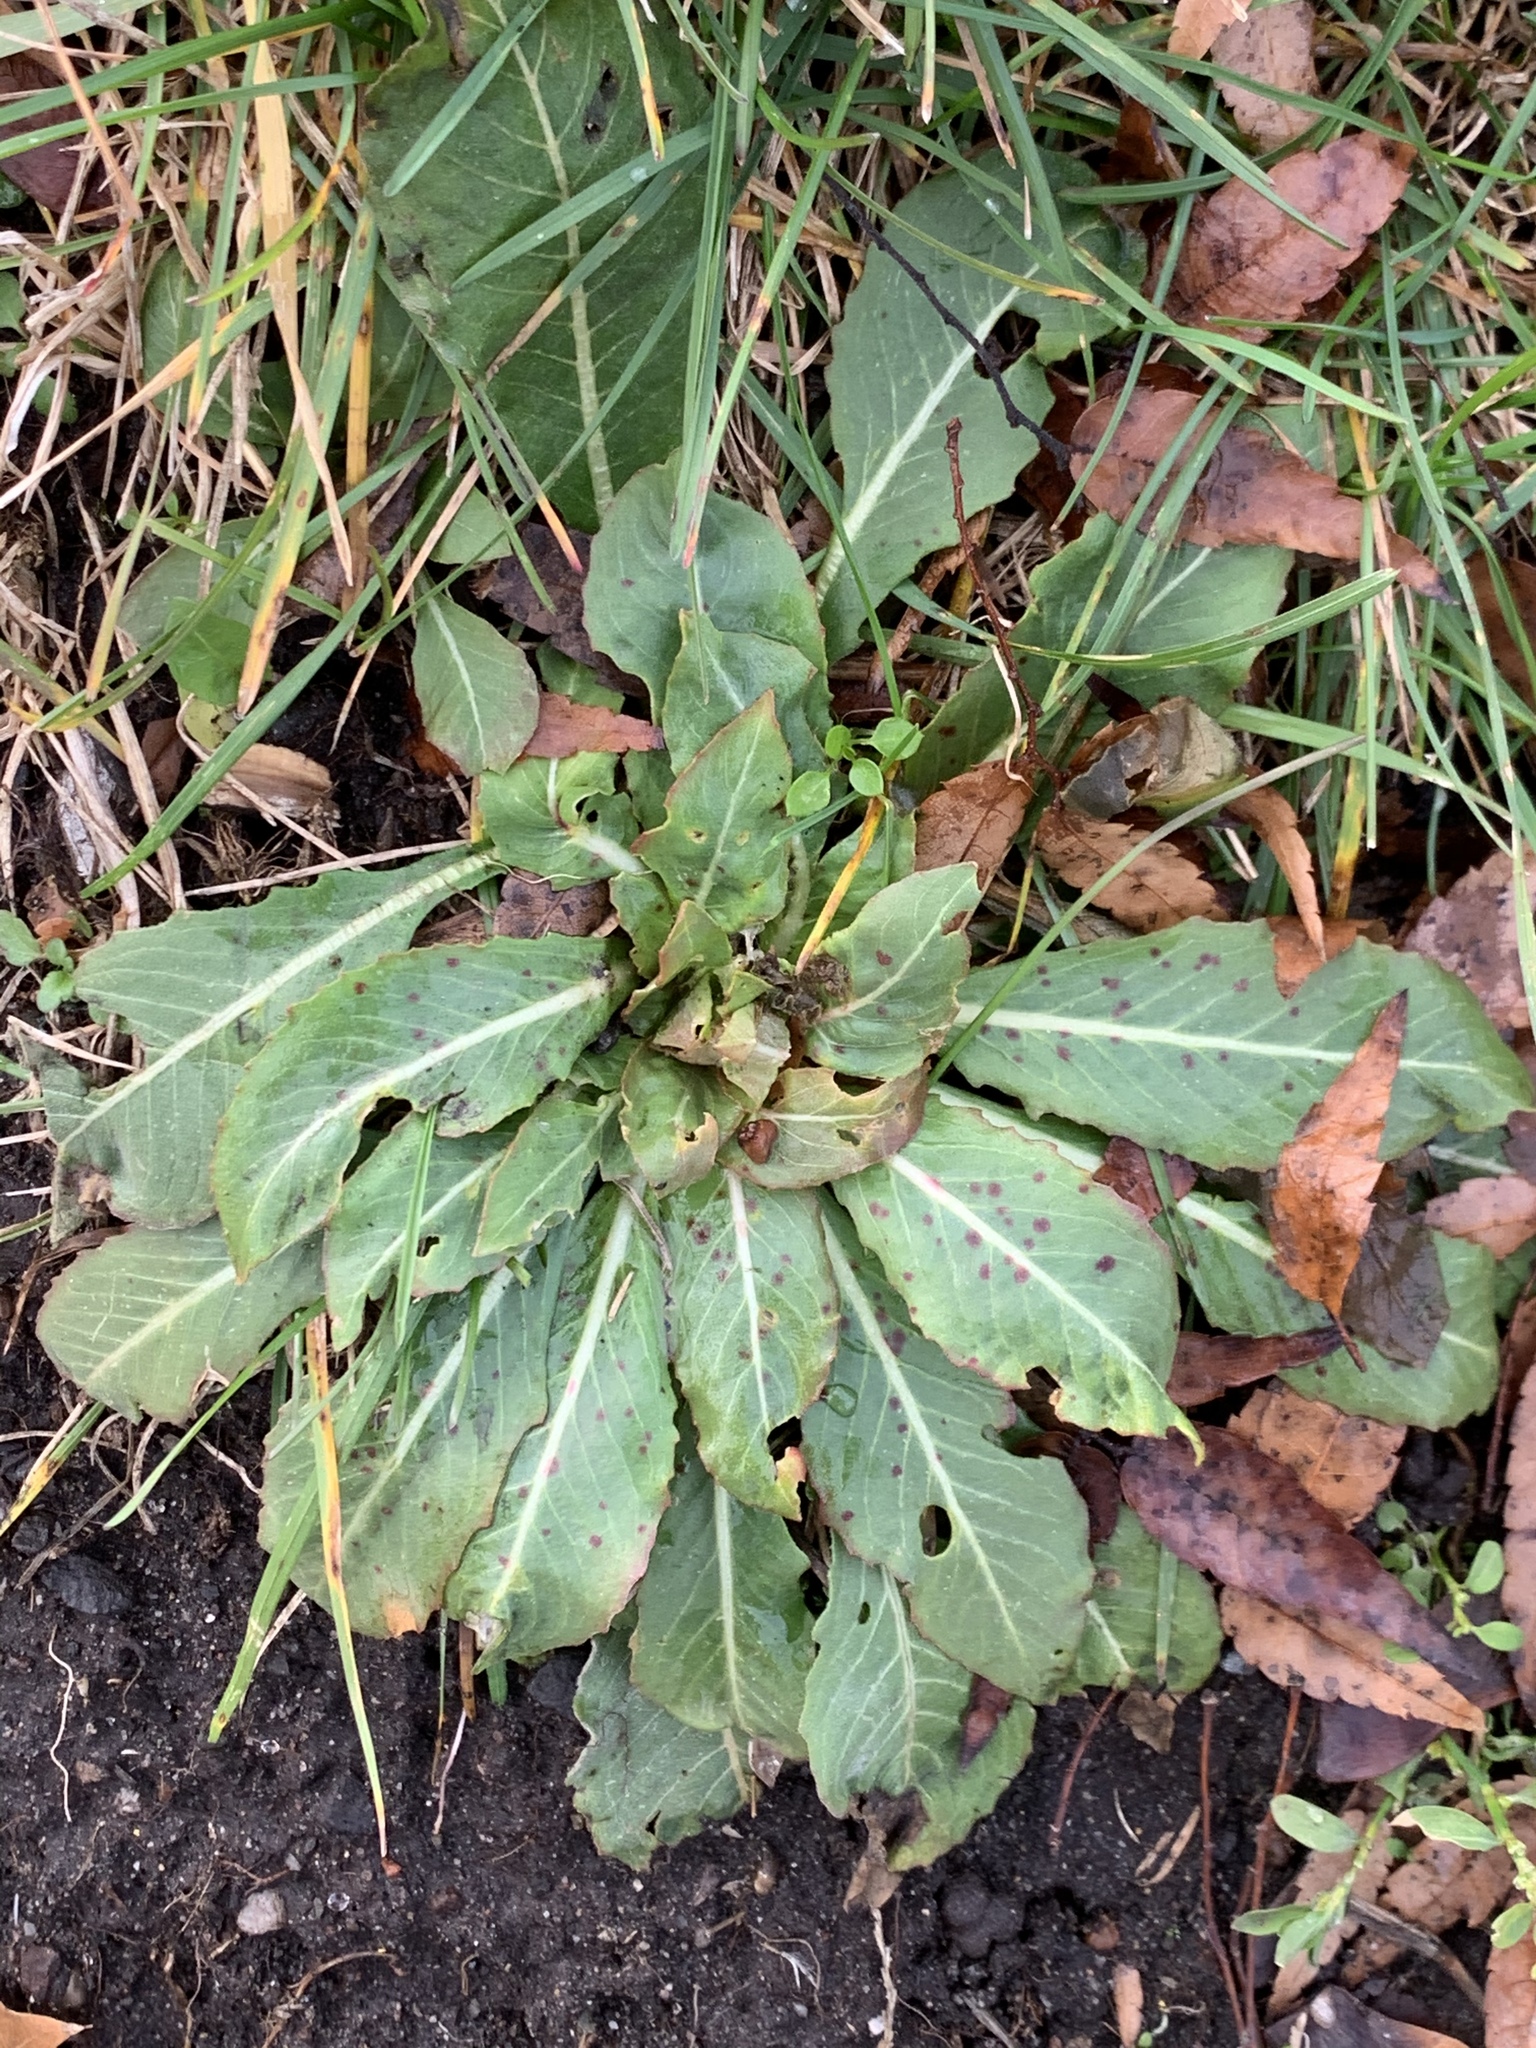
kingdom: Plantae
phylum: Tracheophyta
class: Magnoliopsida
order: Myrtales
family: Onagraceae
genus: Oenothera
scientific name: Oenothera biennis
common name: Common evening-primrose
